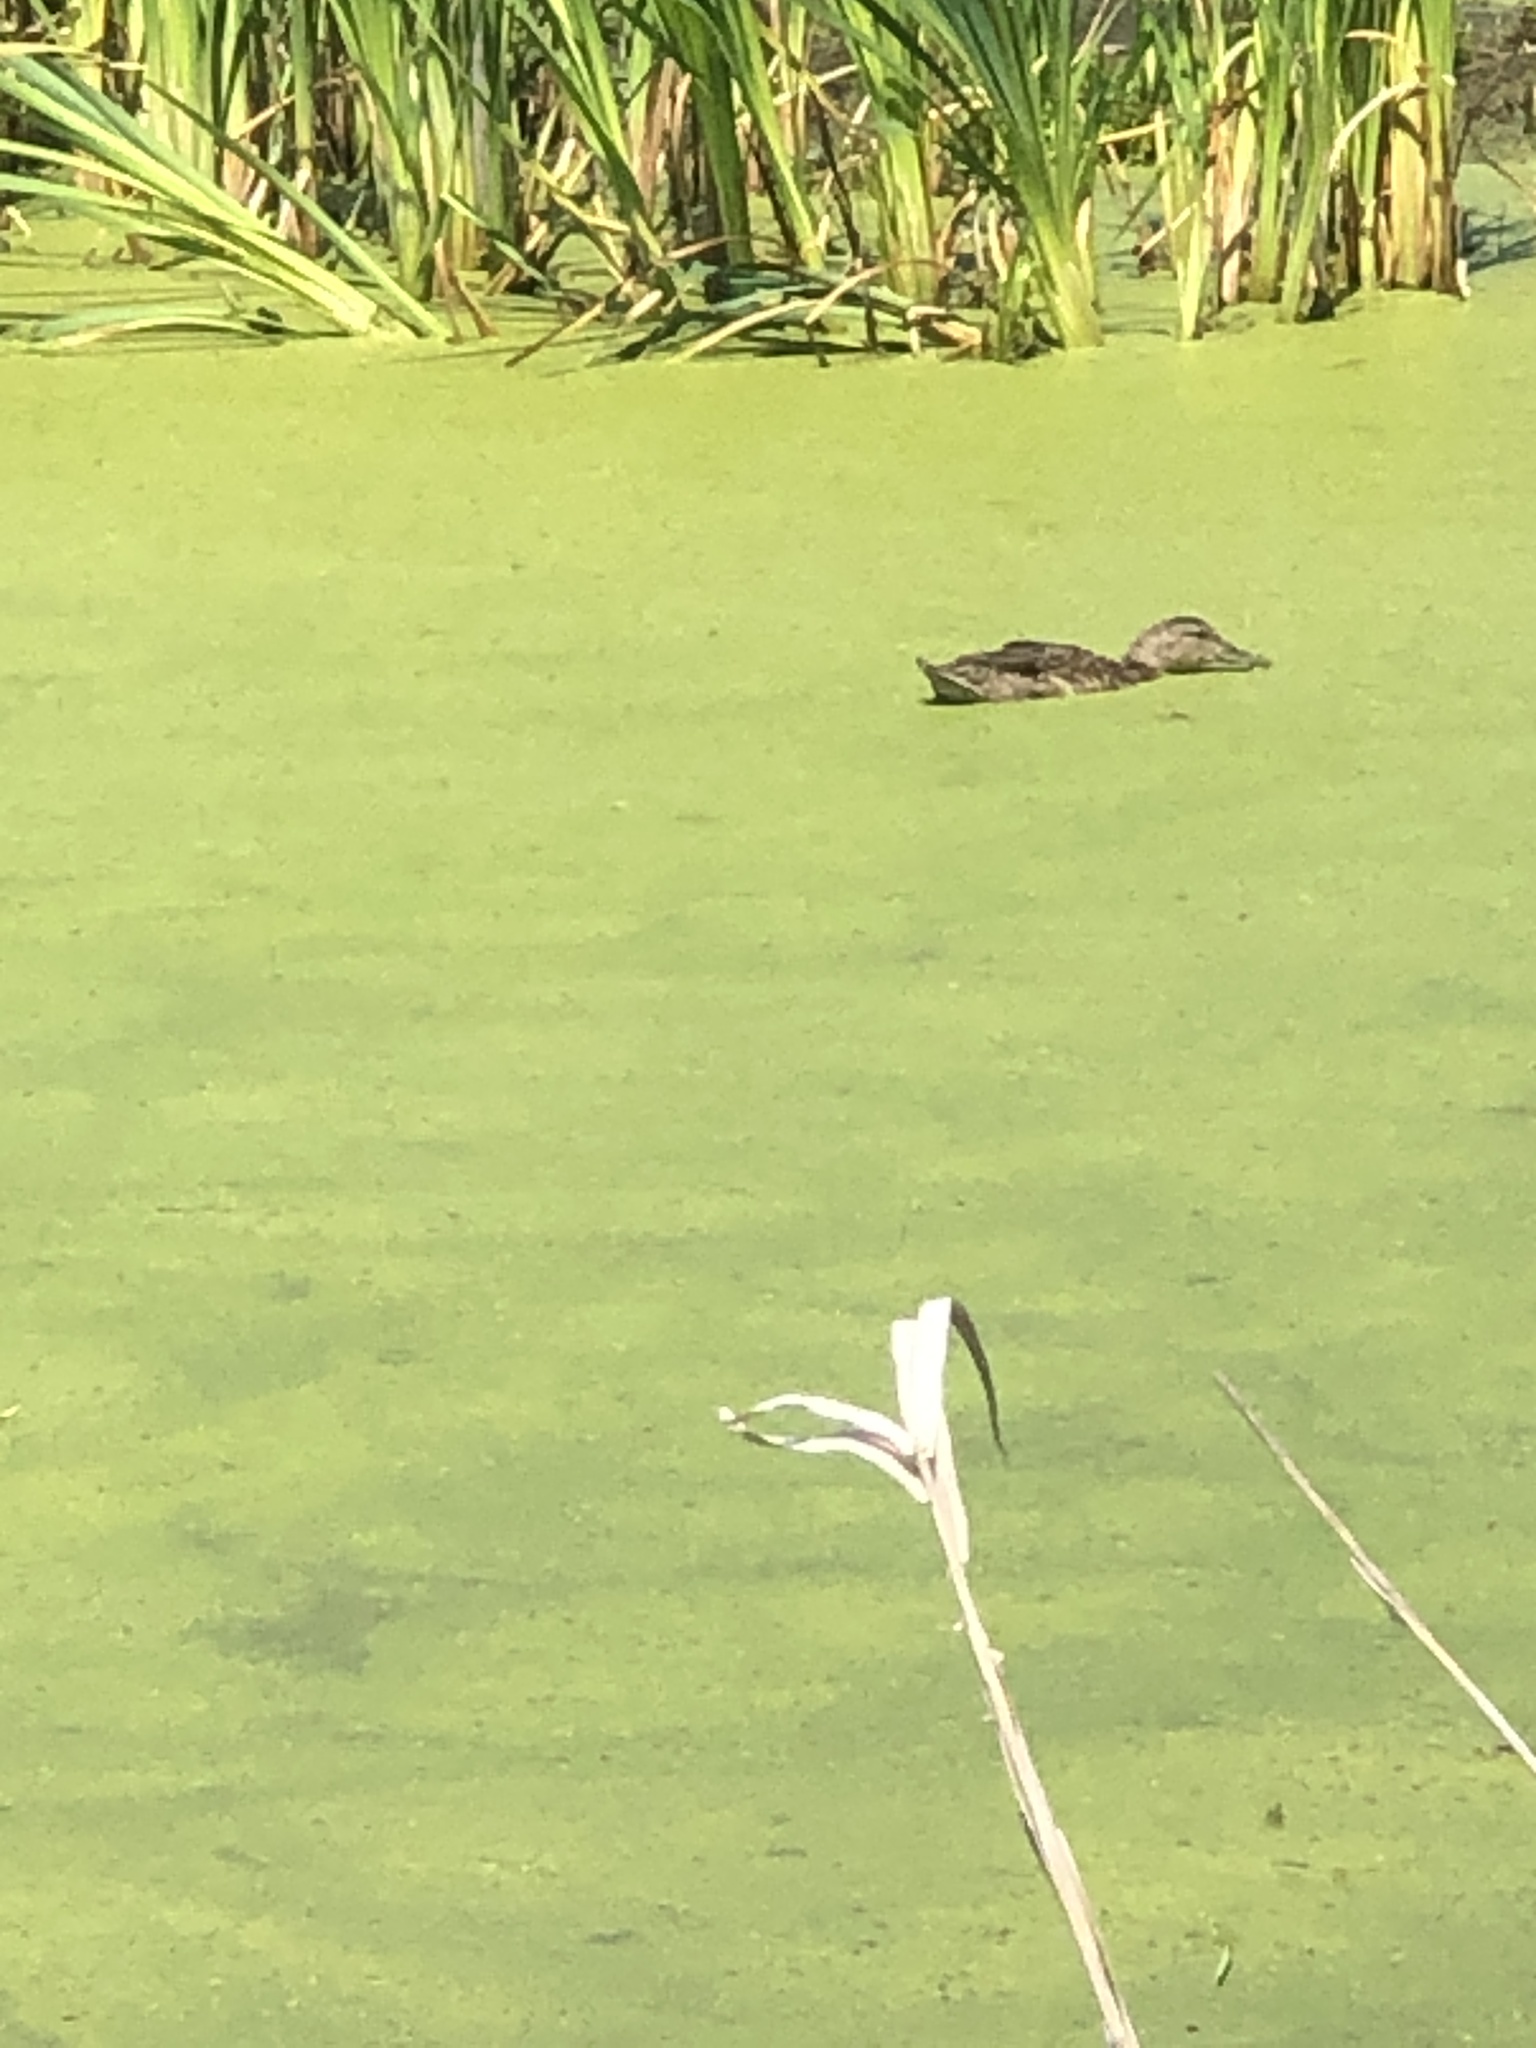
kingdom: Animalia
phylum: Chordata
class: Aves
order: Anseriformes
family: Anatidae
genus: Anas
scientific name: Anas platyrhynchos
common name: Mallard
